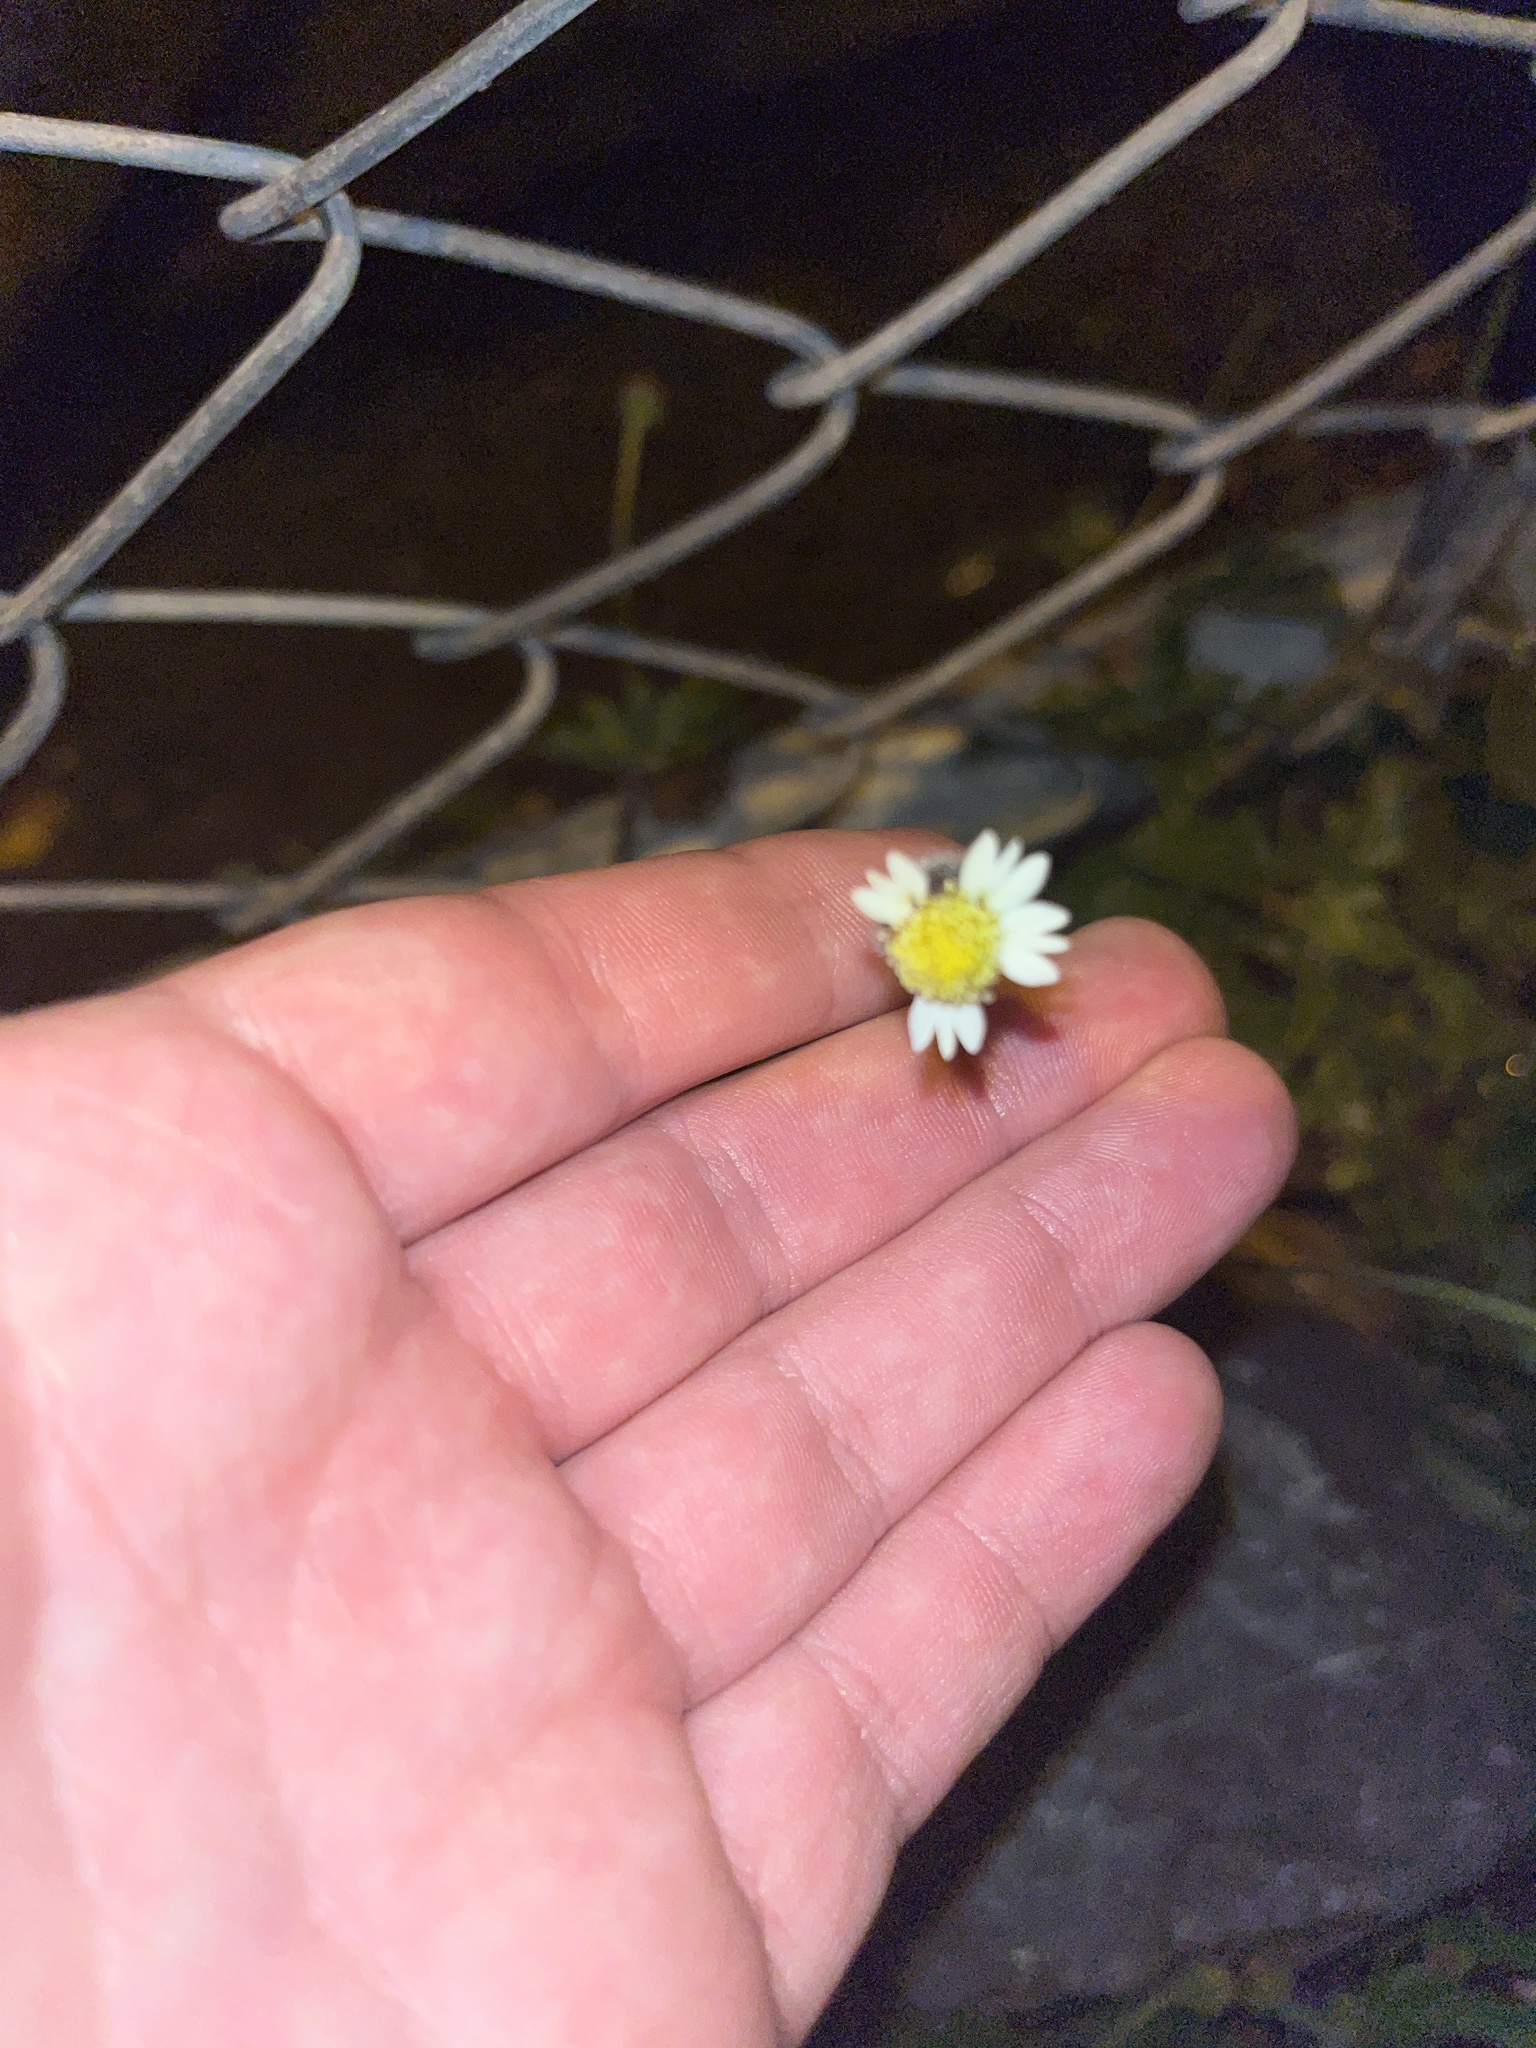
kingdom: Plantae
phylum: Tracheophyta
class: Magnoliopsida
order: Asterales
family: Asteraceae
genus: Tridax
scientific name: Tridax procumbens
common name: Coatbuttons
